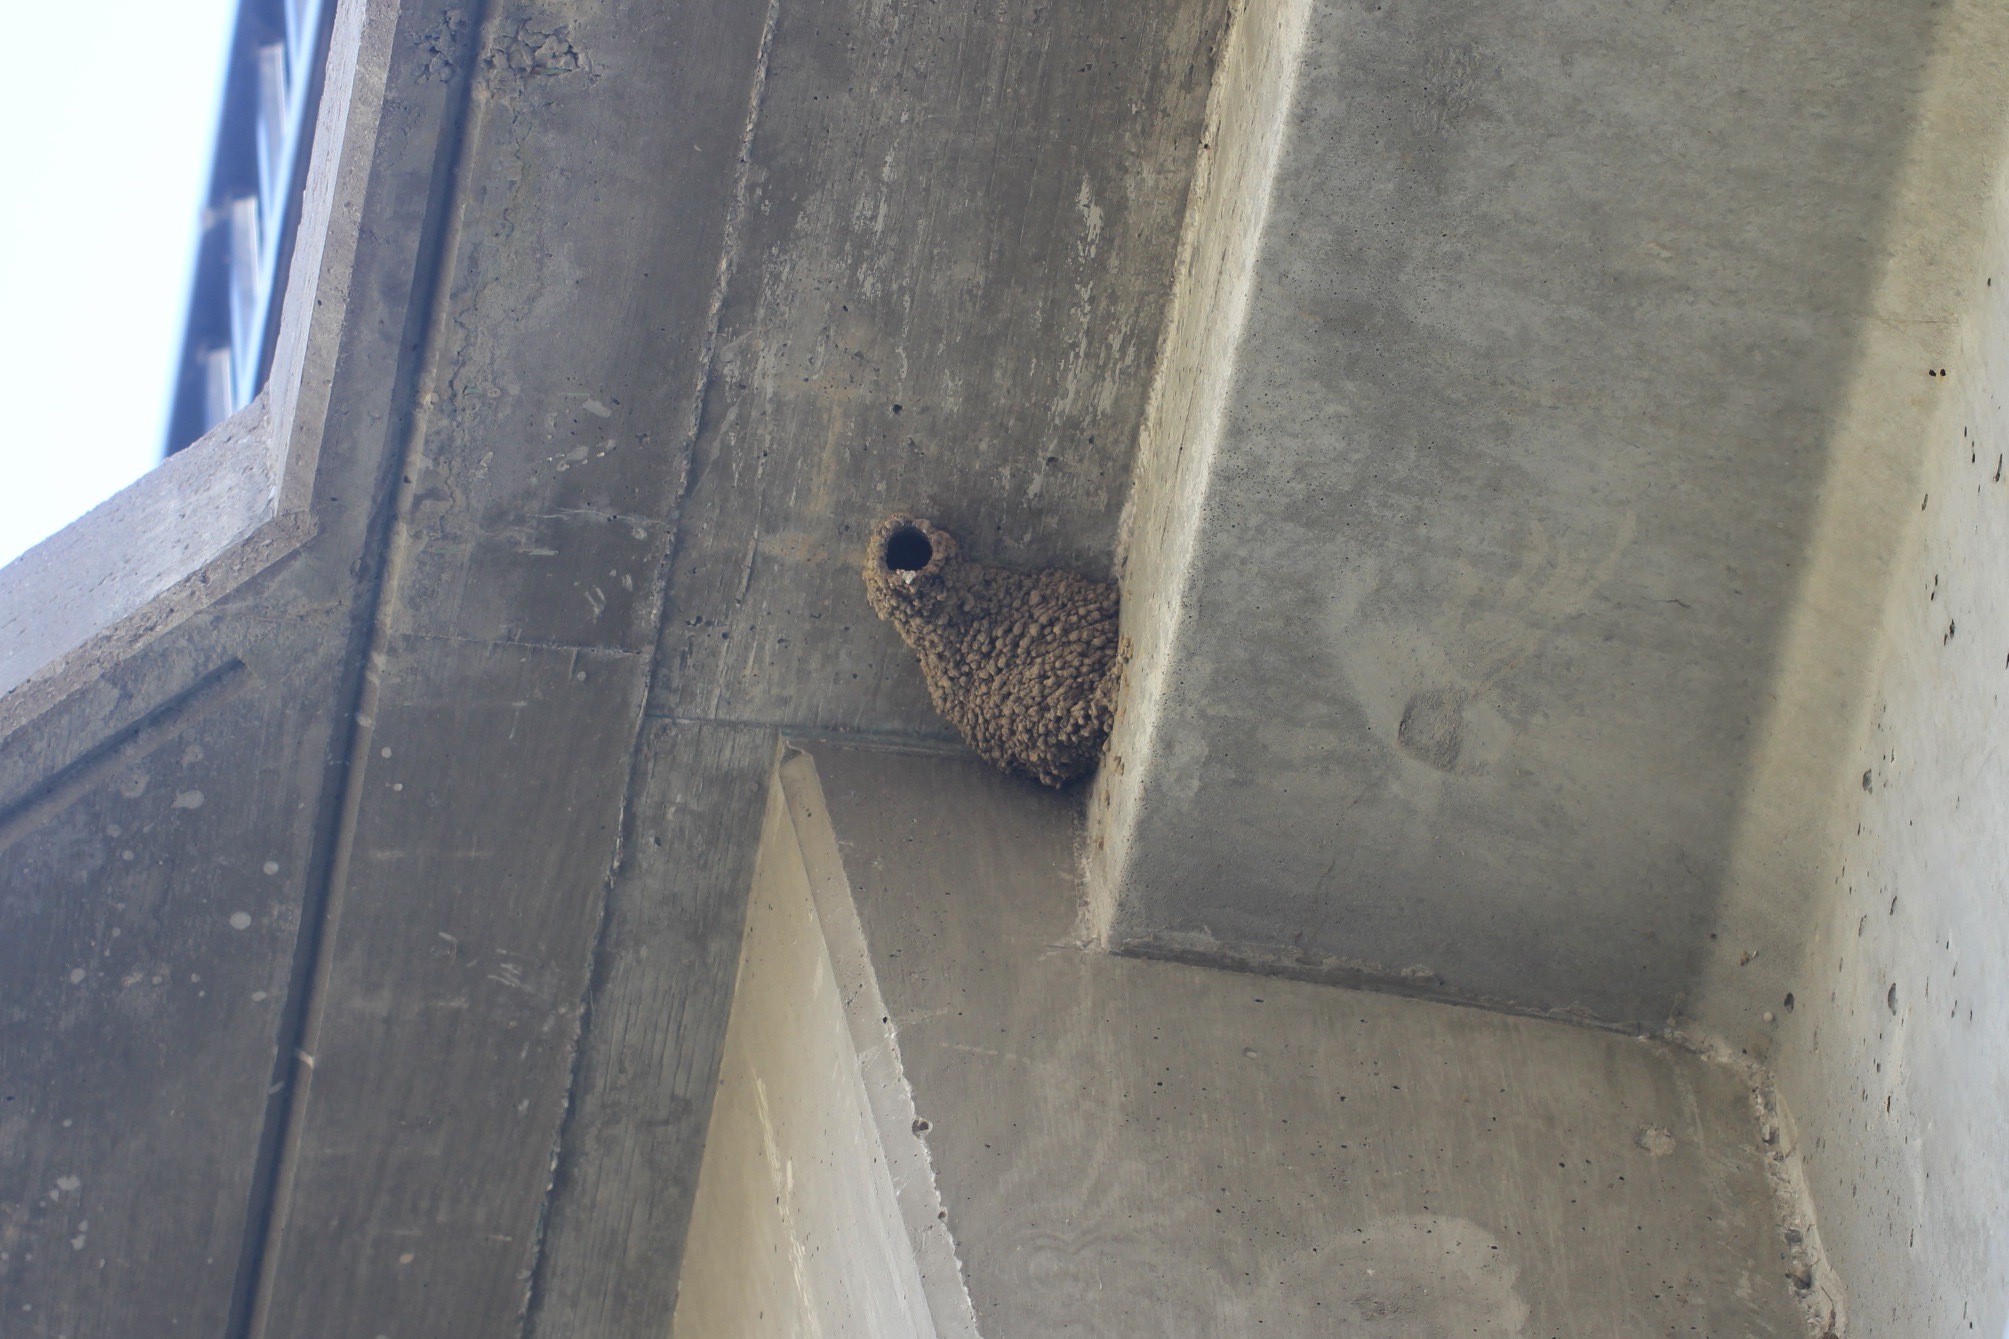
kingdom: Animalia
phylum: Chordata
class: Aves
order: Passeriformes
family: Hirundinidae
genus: Petrochelidon
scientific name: Petrochelidon pyrrhonota
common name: American cliff swallow
